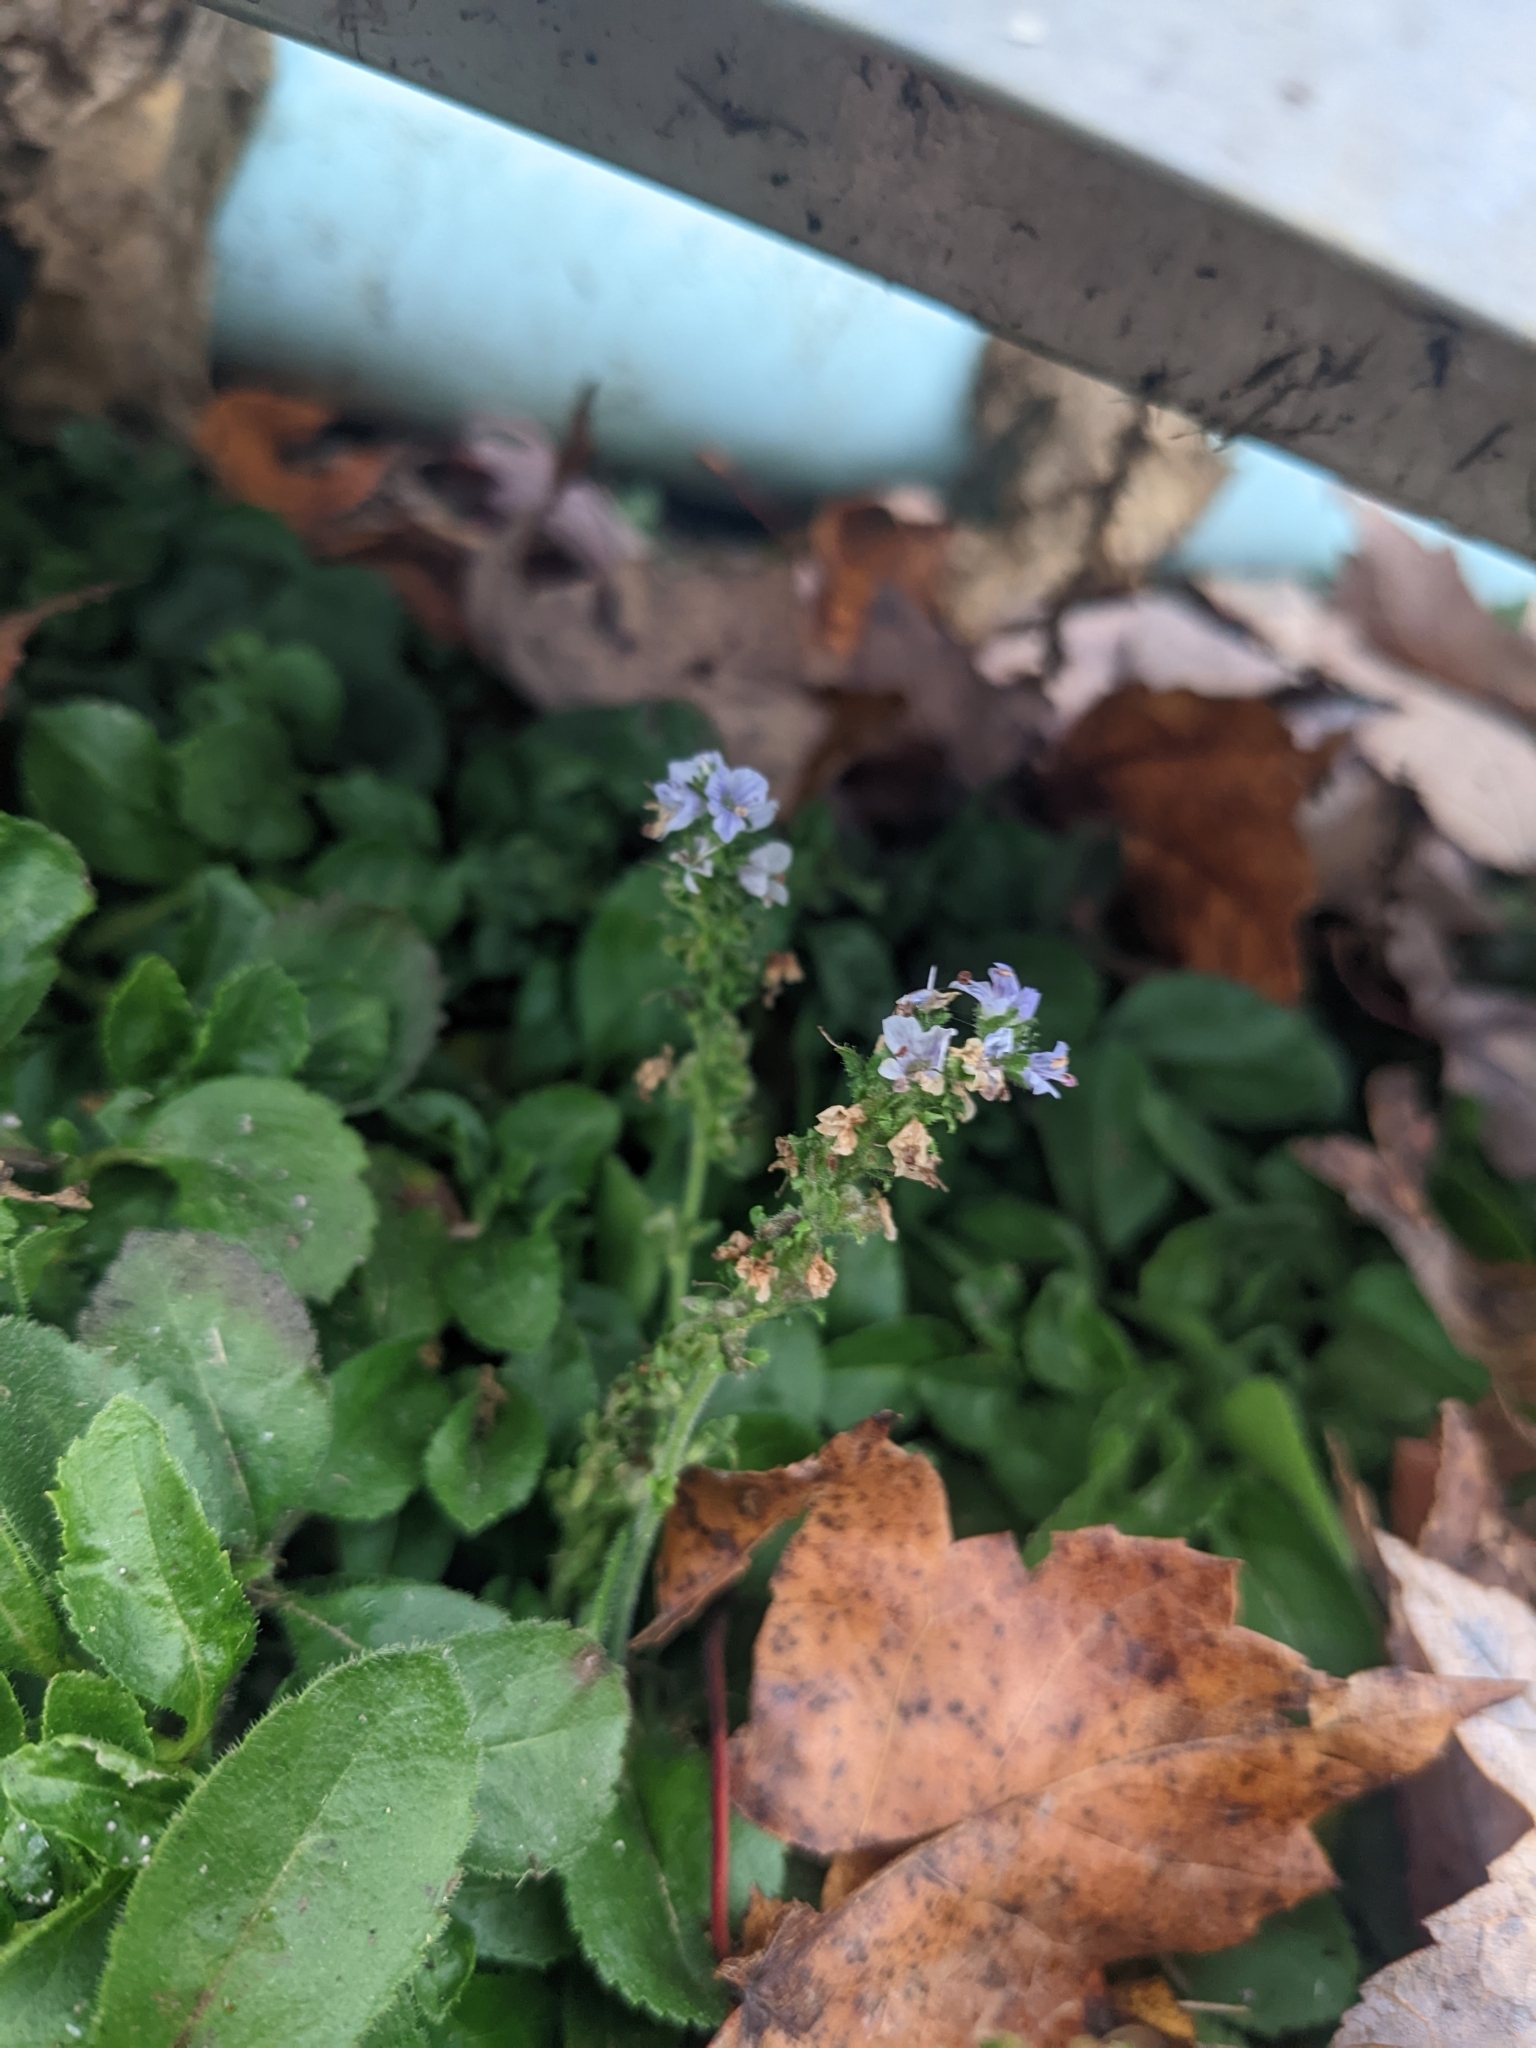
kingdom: Plantae
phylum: Tracheophyta
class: Magnoliopsida
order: Lamiales
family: Plantaginaceae
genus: Veronica
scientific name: Veronica officinalis
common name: Common speedwell
